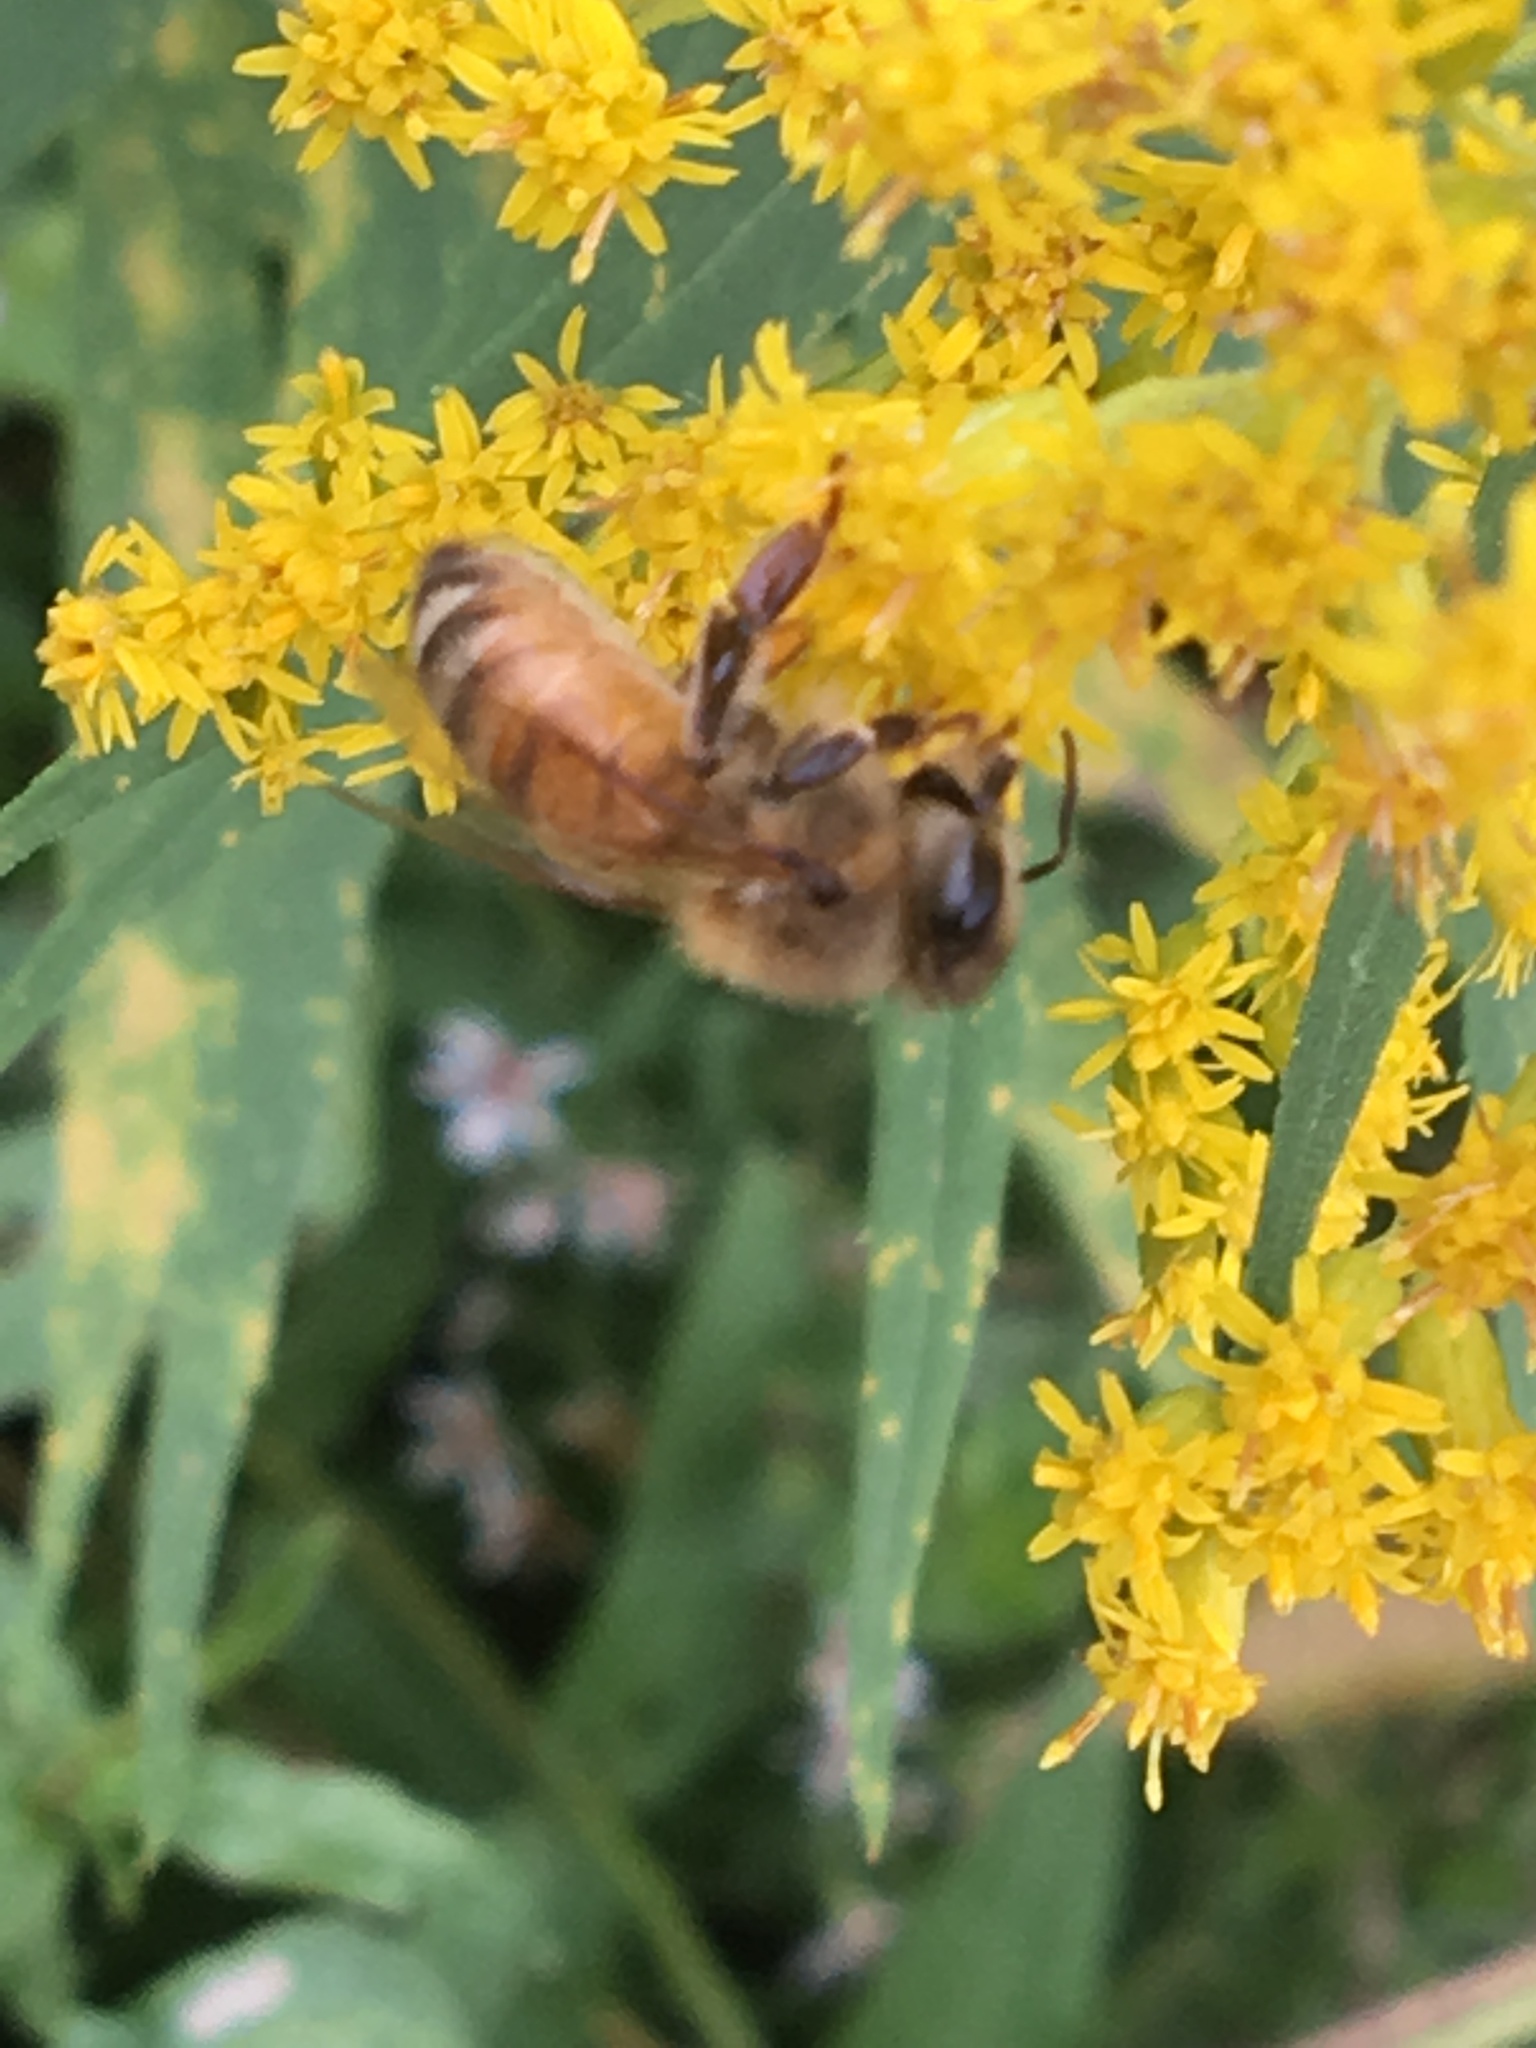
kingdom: Animalia
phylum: Arthropoda
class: Insecta
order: Hymenoptera
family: Apidae
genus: Apis
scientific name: Apis mellifera
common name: Honey bee
